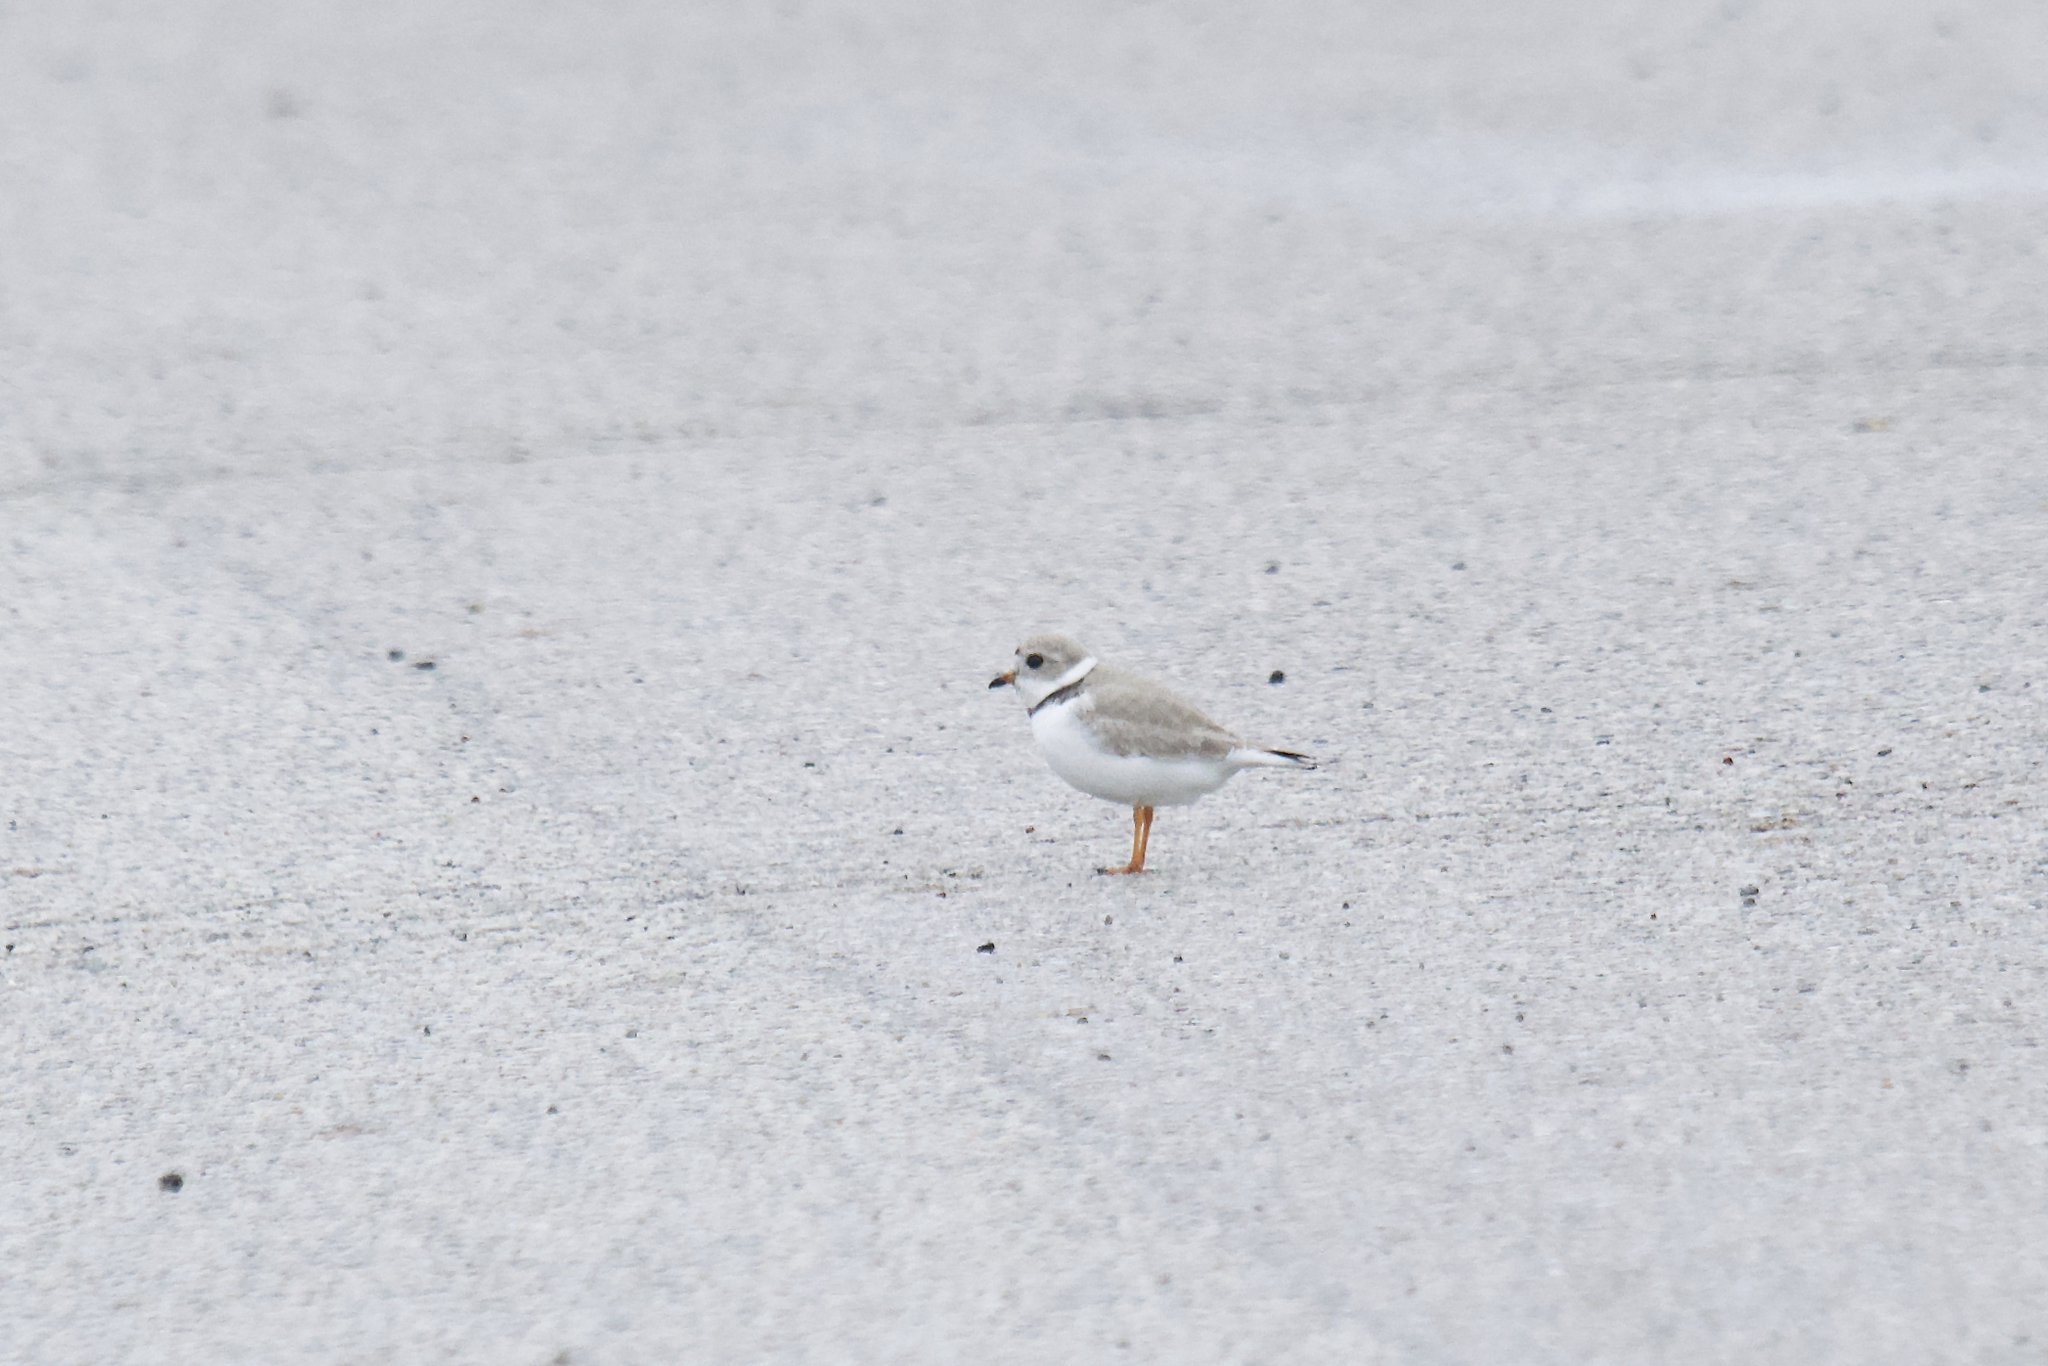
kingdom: Animalia
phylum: Chordata
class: Aves
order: Charadriiformes
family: Charadriidae
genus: Charadrius
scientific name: Charadrius melodus
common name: Piping plover
